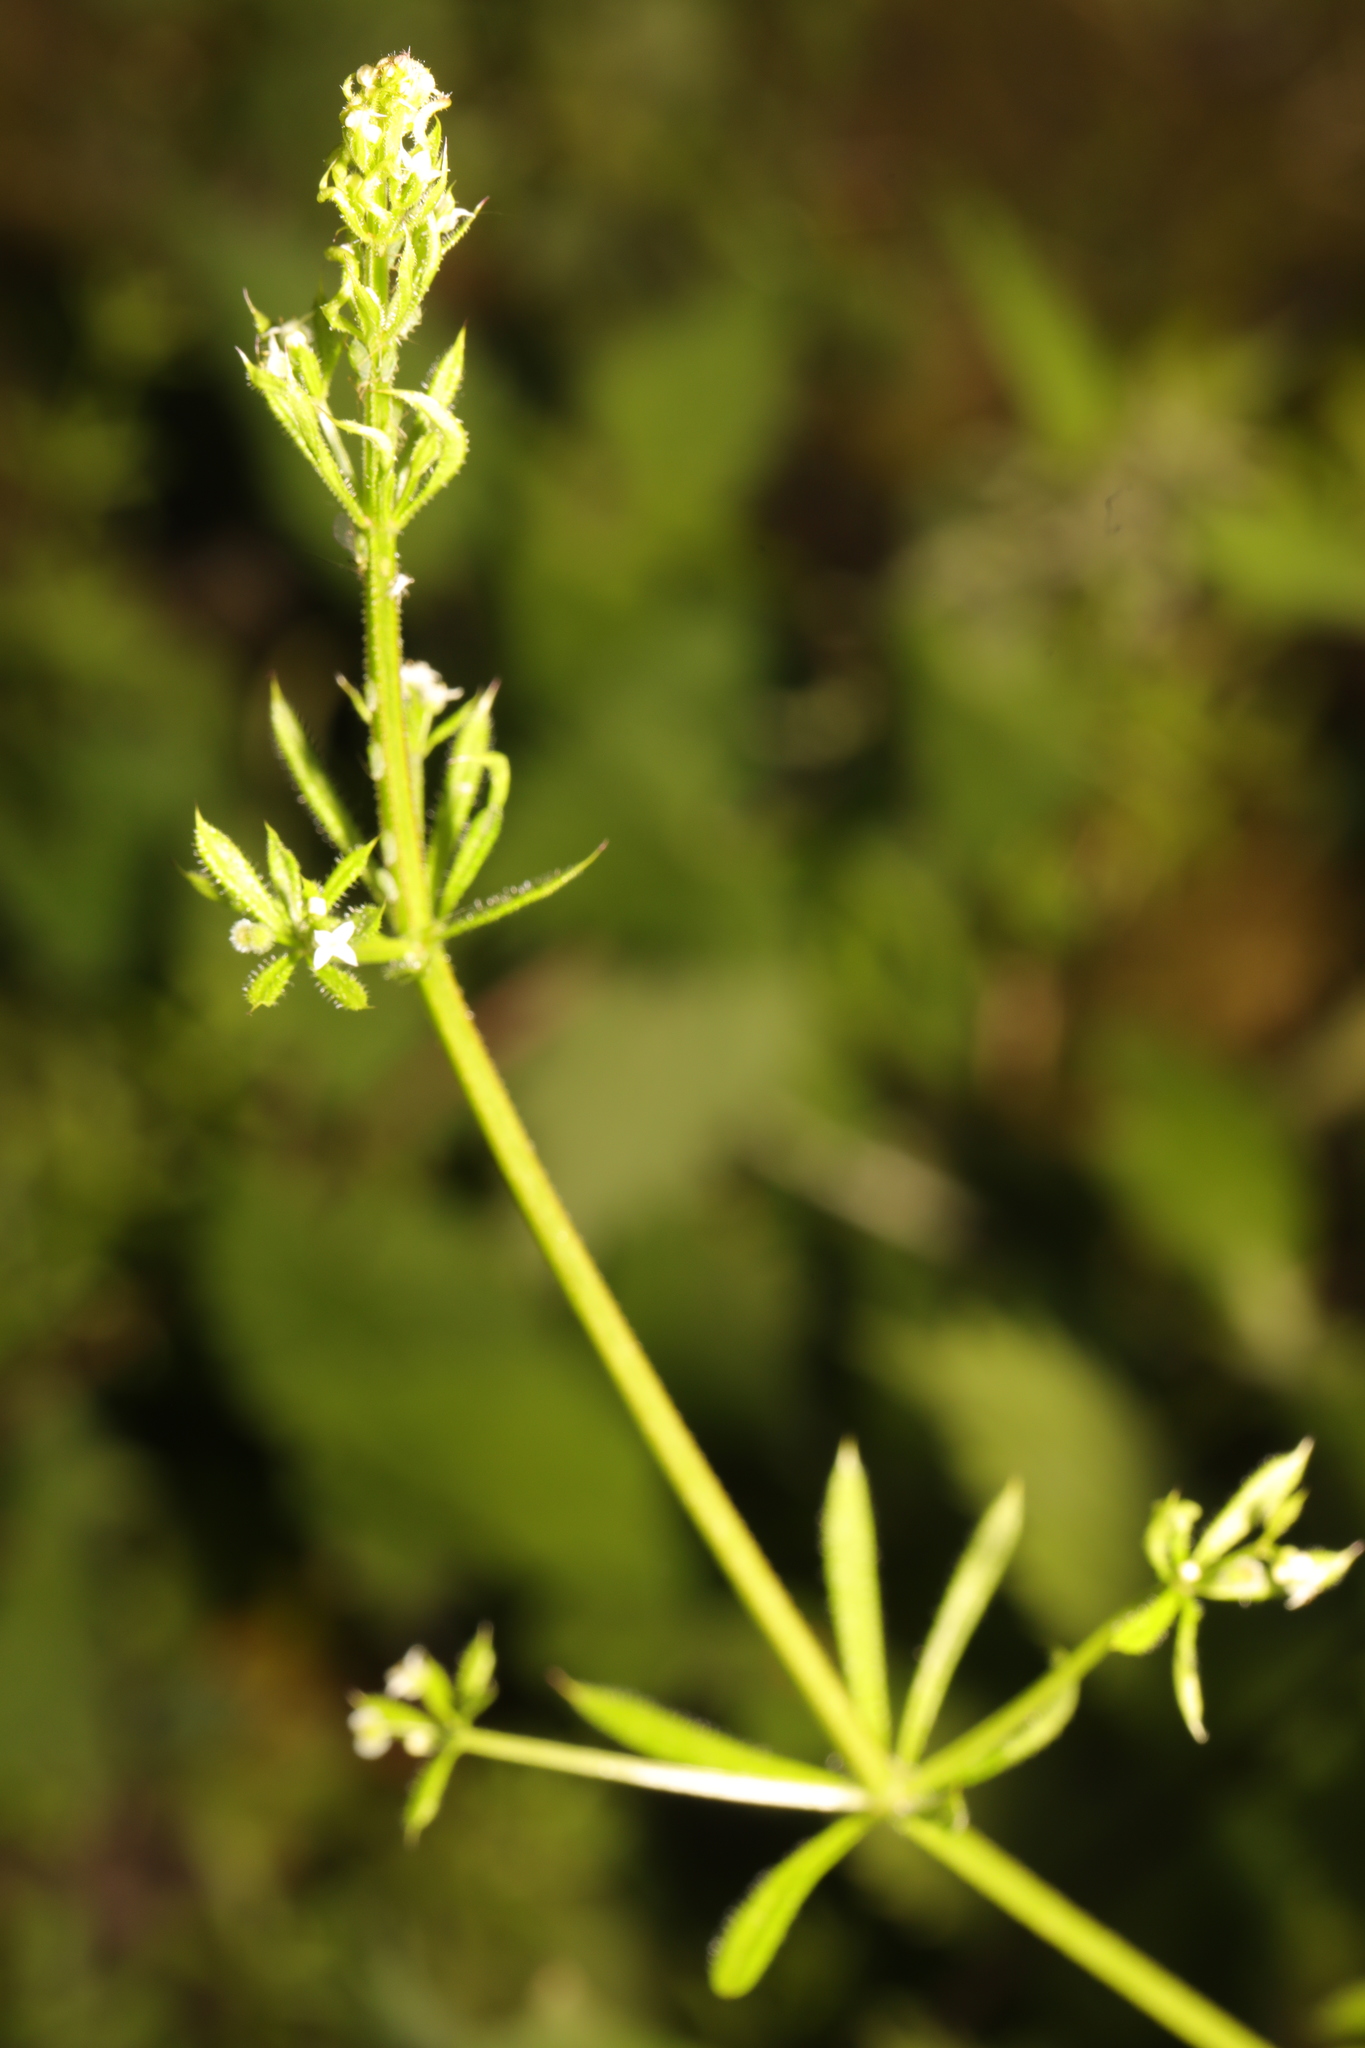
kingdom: Plantae
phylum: Tracheophyta
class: Magnoliopsida
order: Gentianales
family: Rubiaceae
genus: Galium
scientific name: Galium aparine
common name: Cleavers
